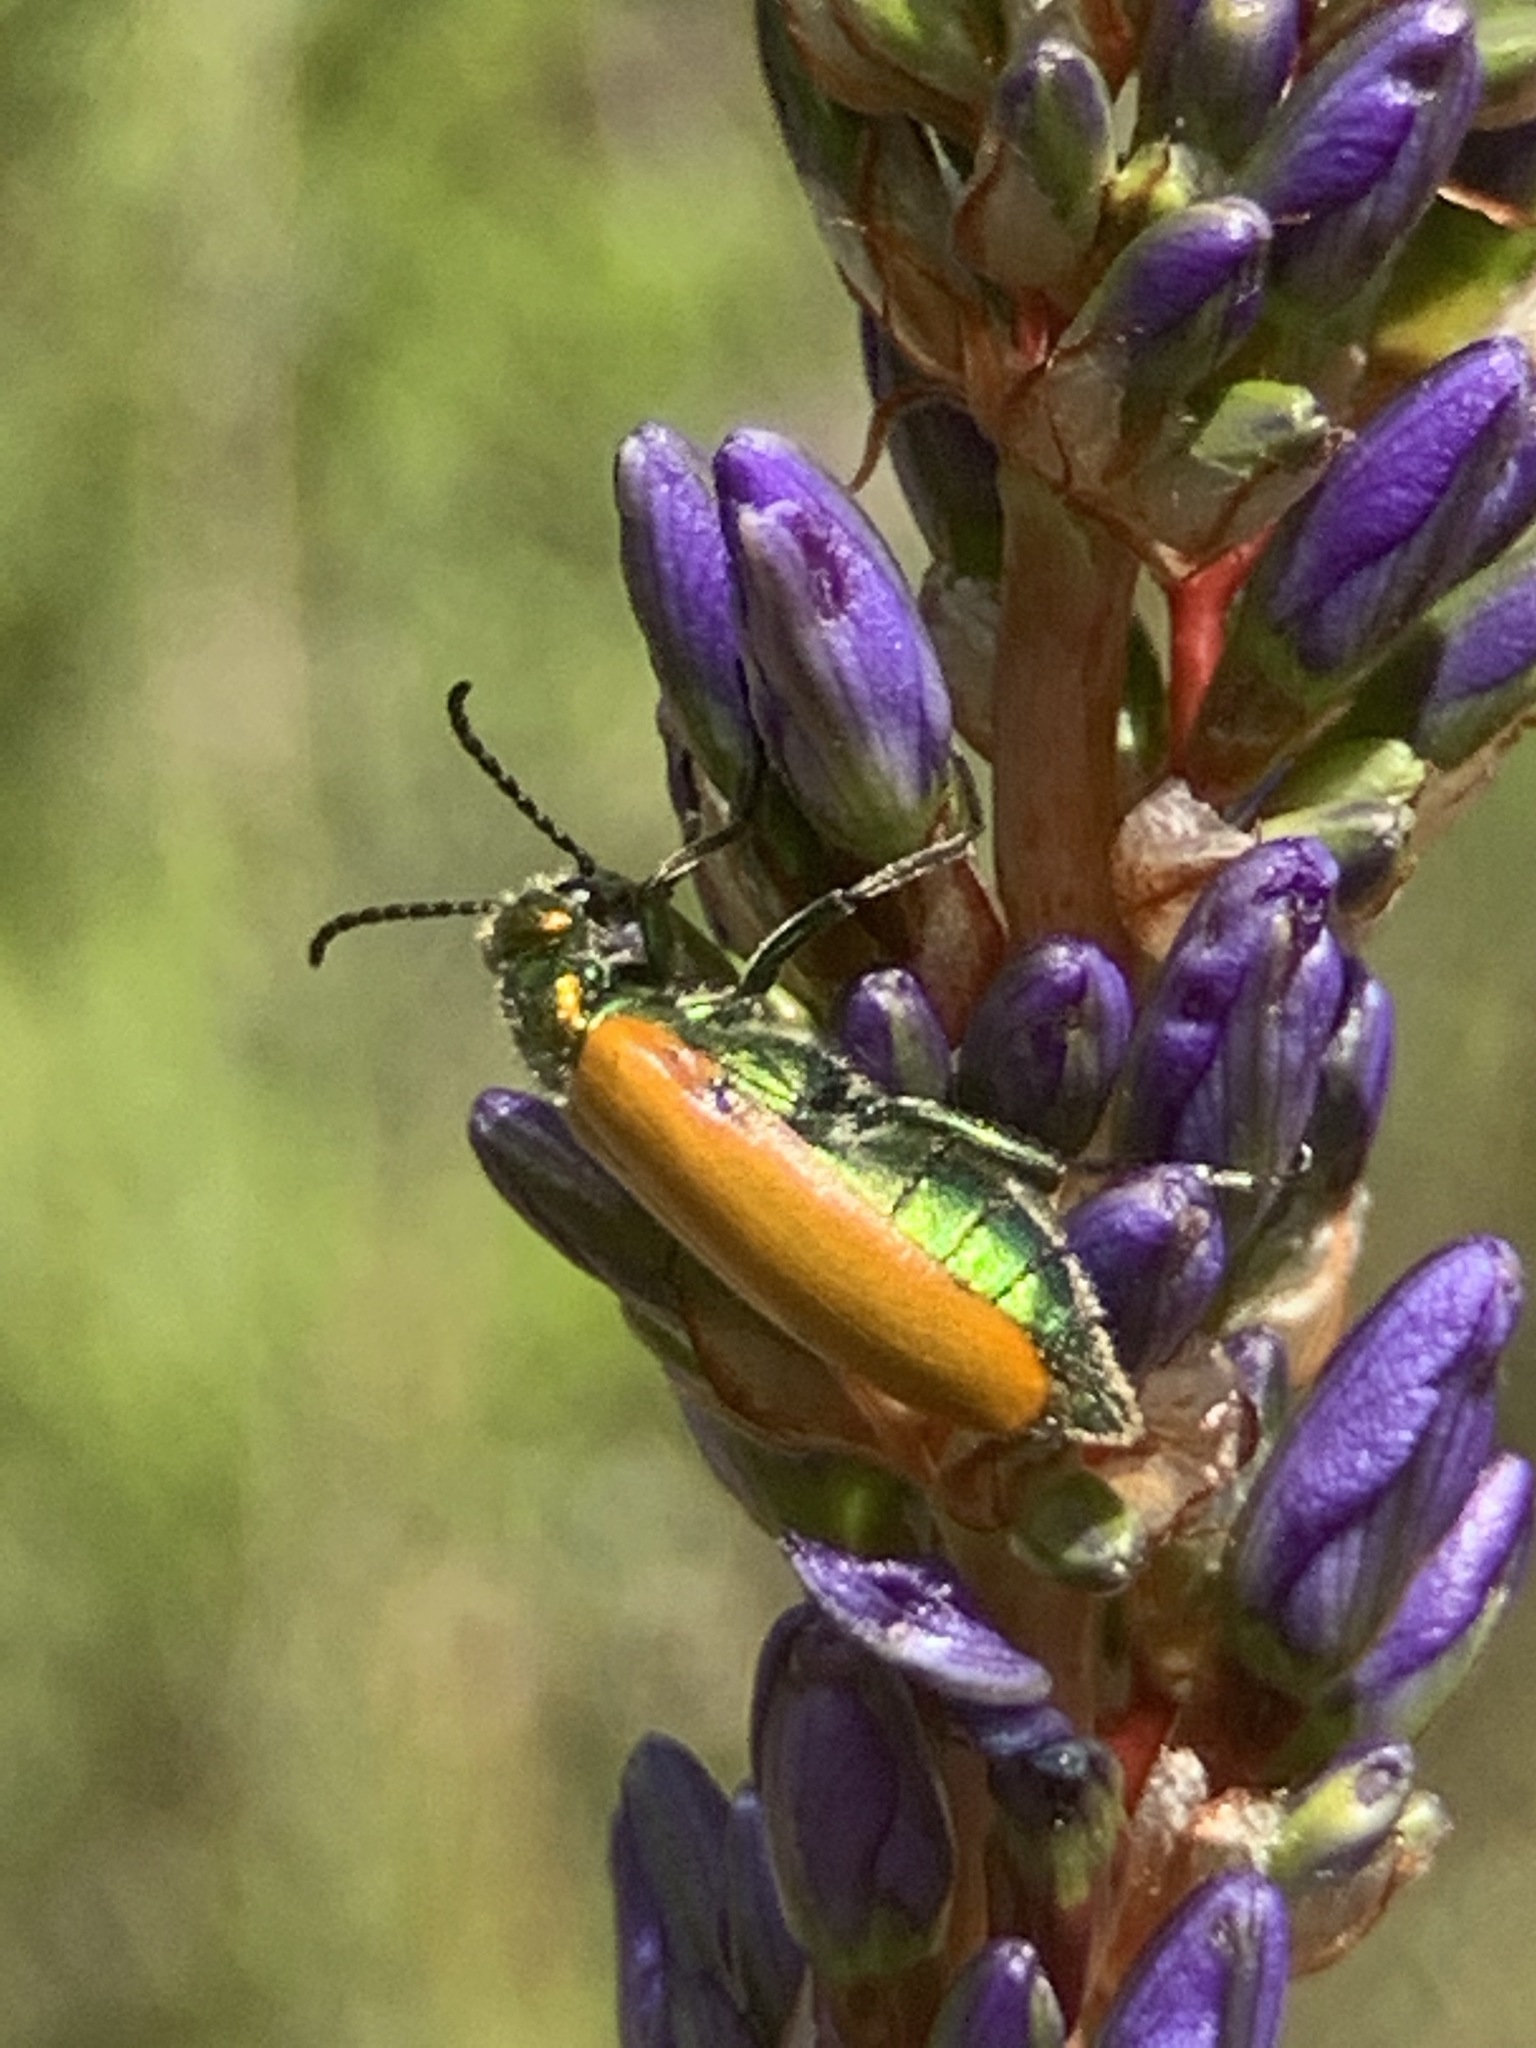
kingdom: Animalia
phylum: Arthropoda
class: Insecta
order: Coleoptera
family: Meloidae
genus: Prolytta
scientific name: Prolytta
